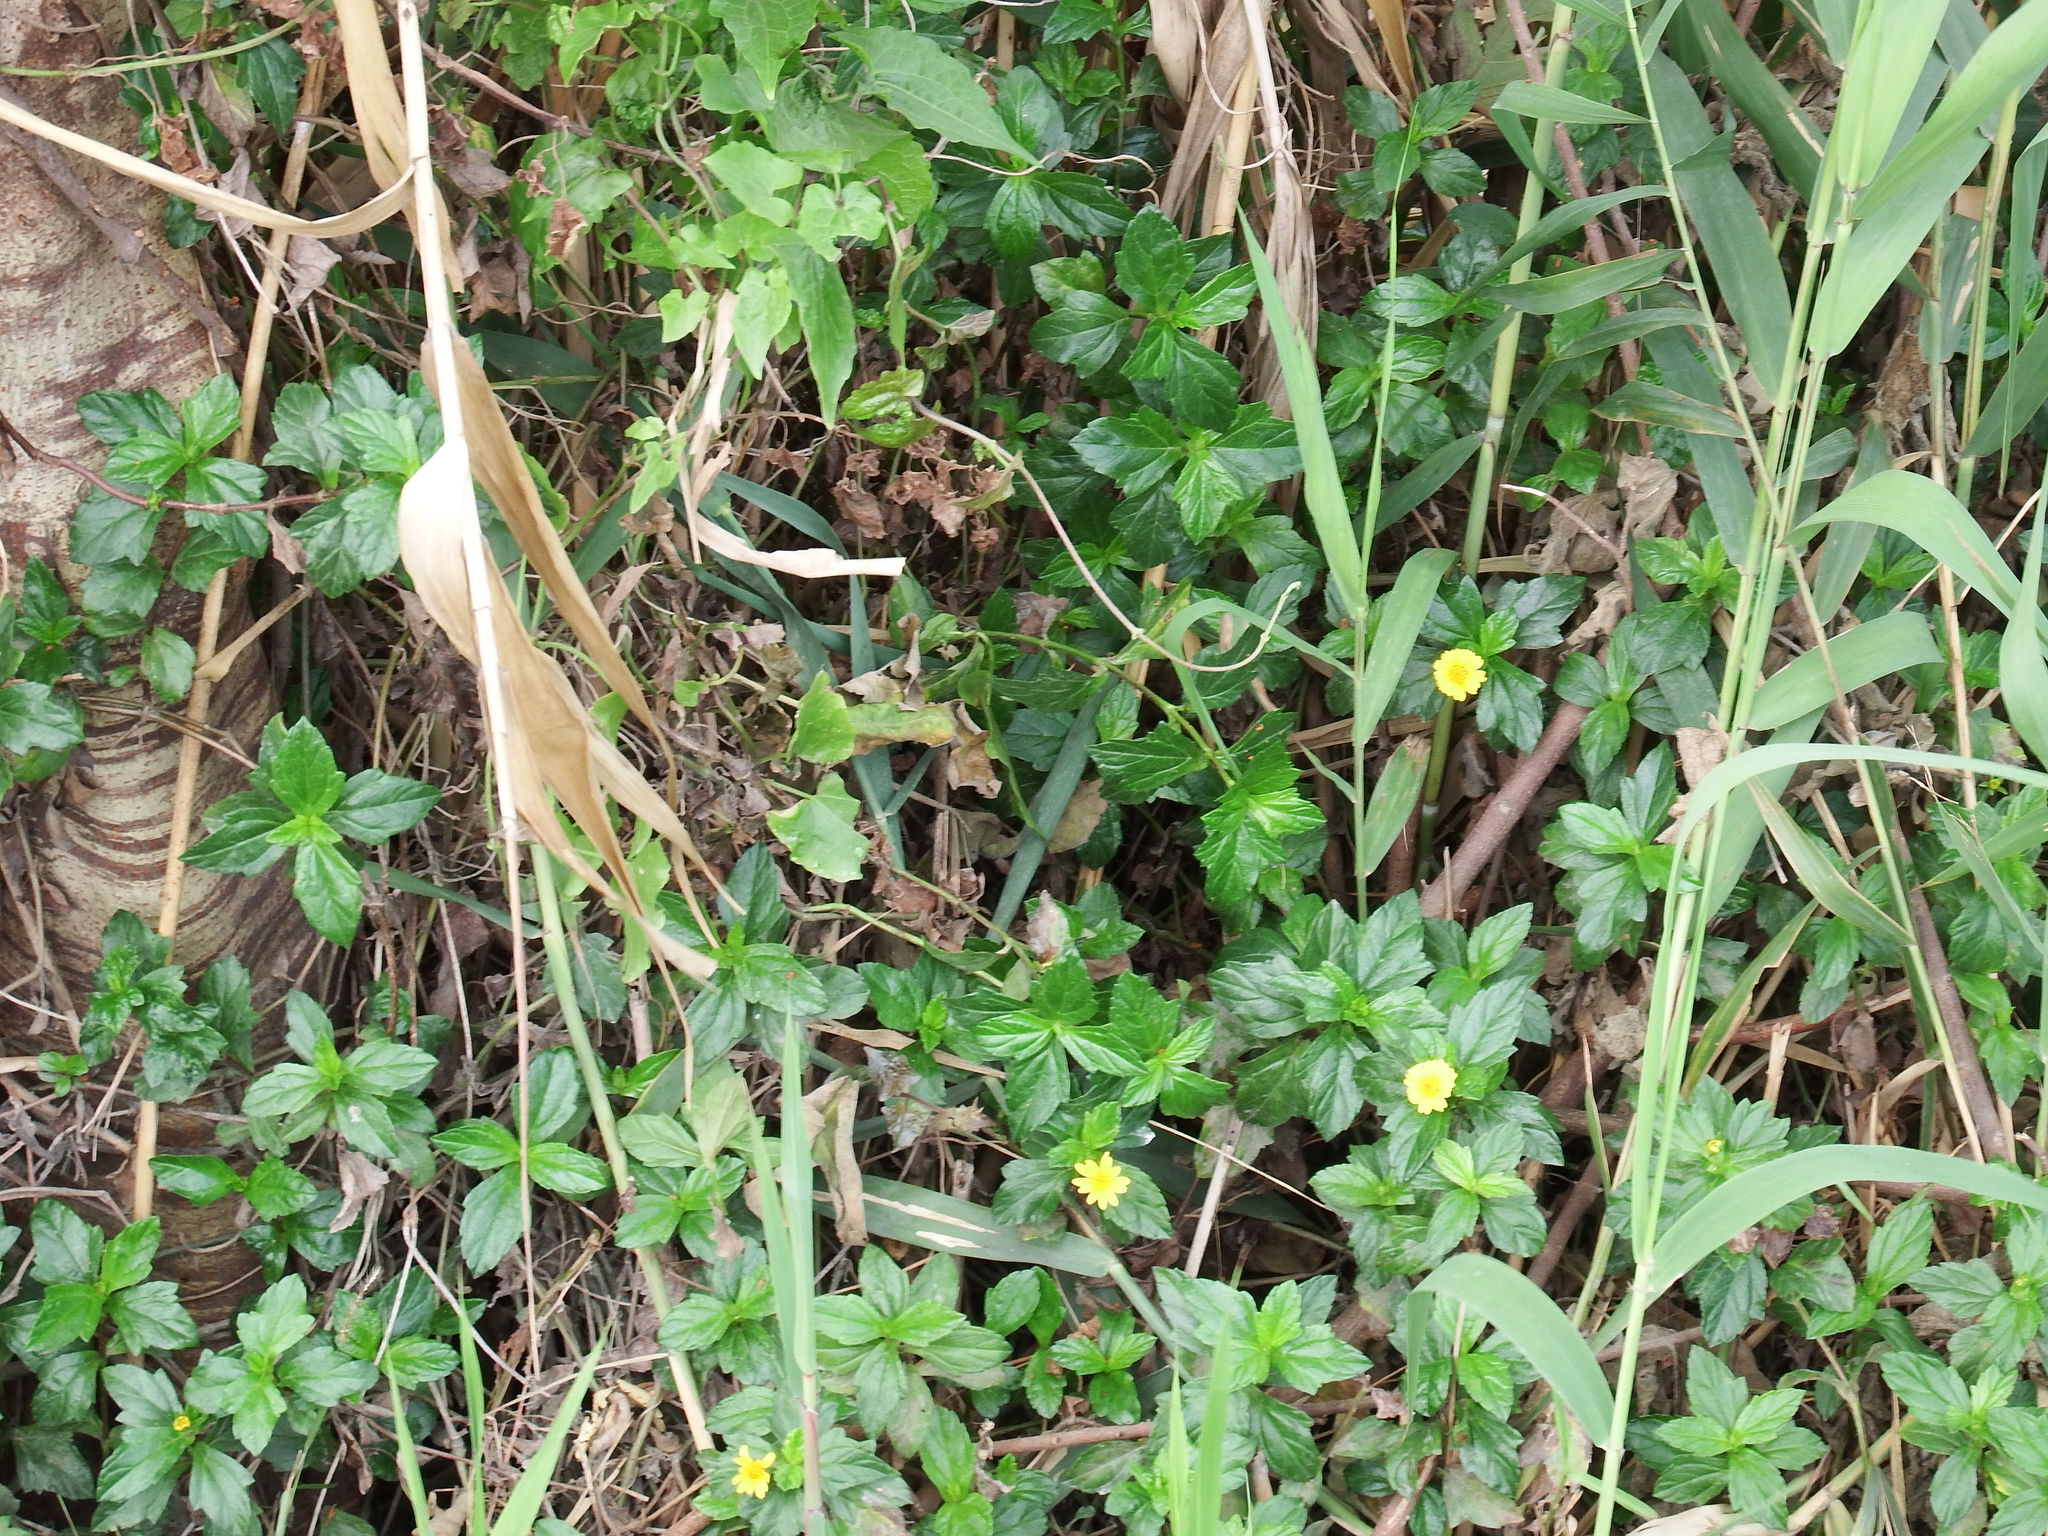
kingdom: Plantae
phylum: Tracheophyta
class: Magnoliopsida
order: Asterales
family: Asteraceae
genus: Sphagneticola
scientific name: Sphagneticola trilobata
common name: Bay biscayne creeping-oxeye
